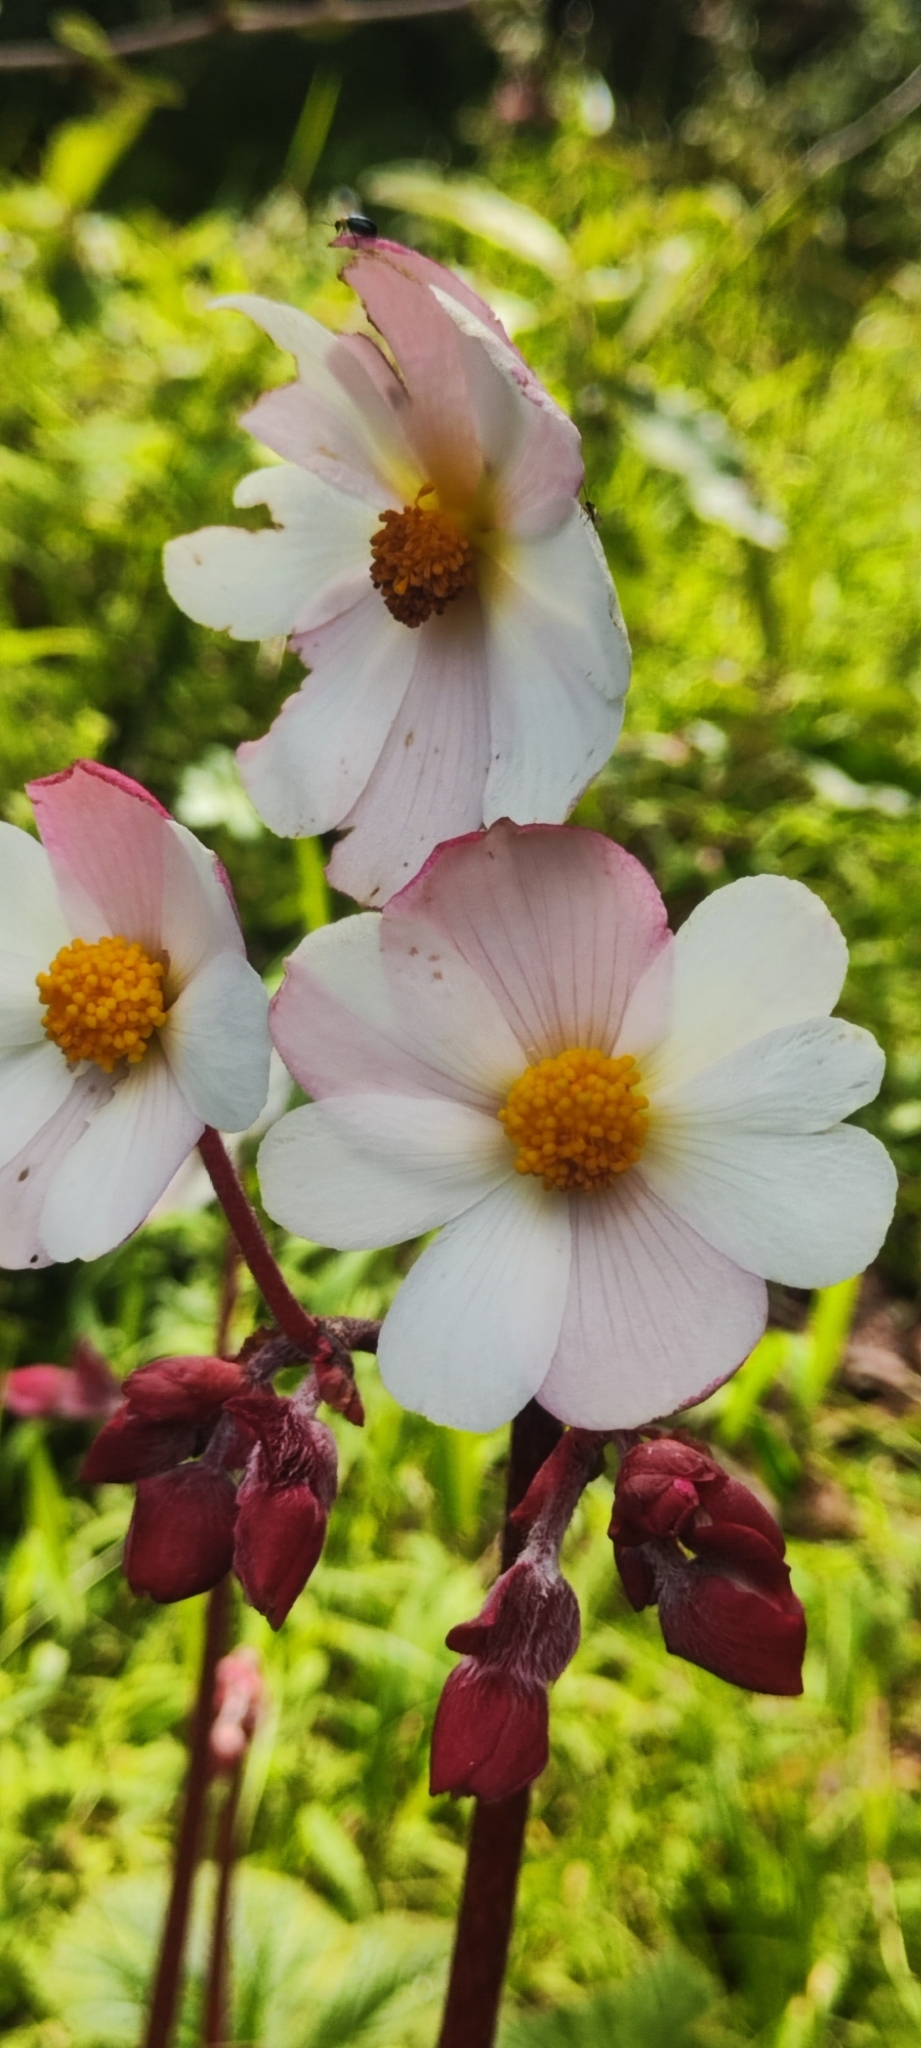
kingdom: Plantae
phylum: Tracheophyta
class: Magnoliopsida
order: Cucurbitales
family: Begoniaceae
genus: Begonia
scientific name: Begonia octopetala
